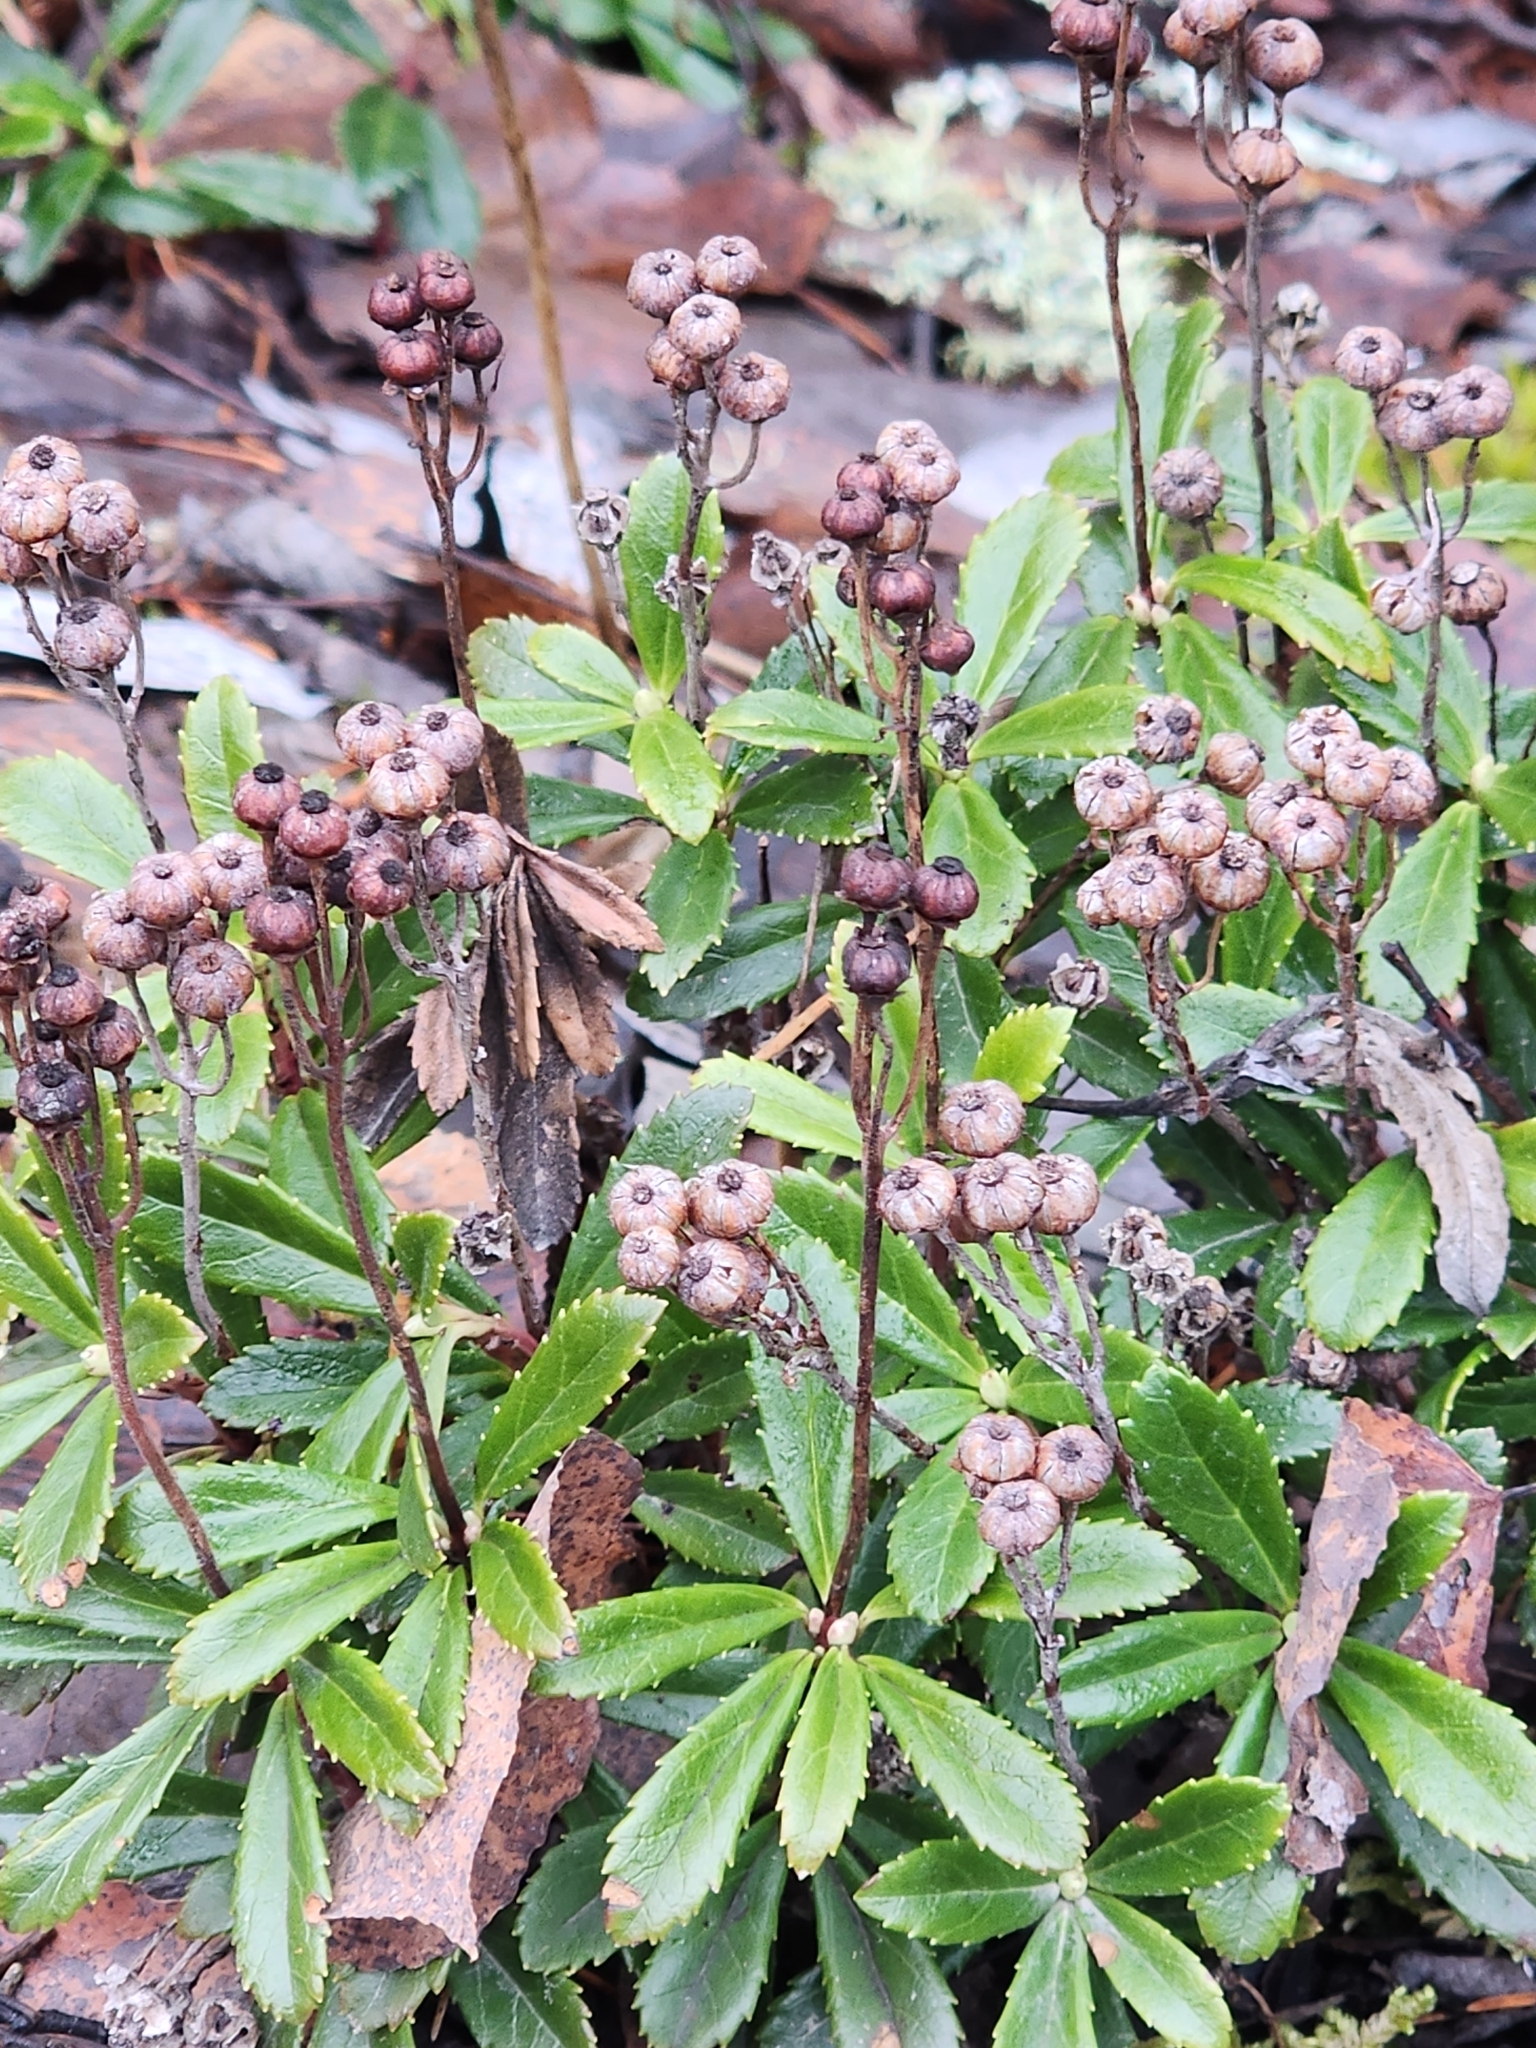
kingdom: Plantae
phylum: Tracheophyta
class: Magnoliopsida
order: Ericales
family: Ericaceae
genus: Chimaphila
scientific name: Chimaphila umbellata
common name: Pipsissewa
